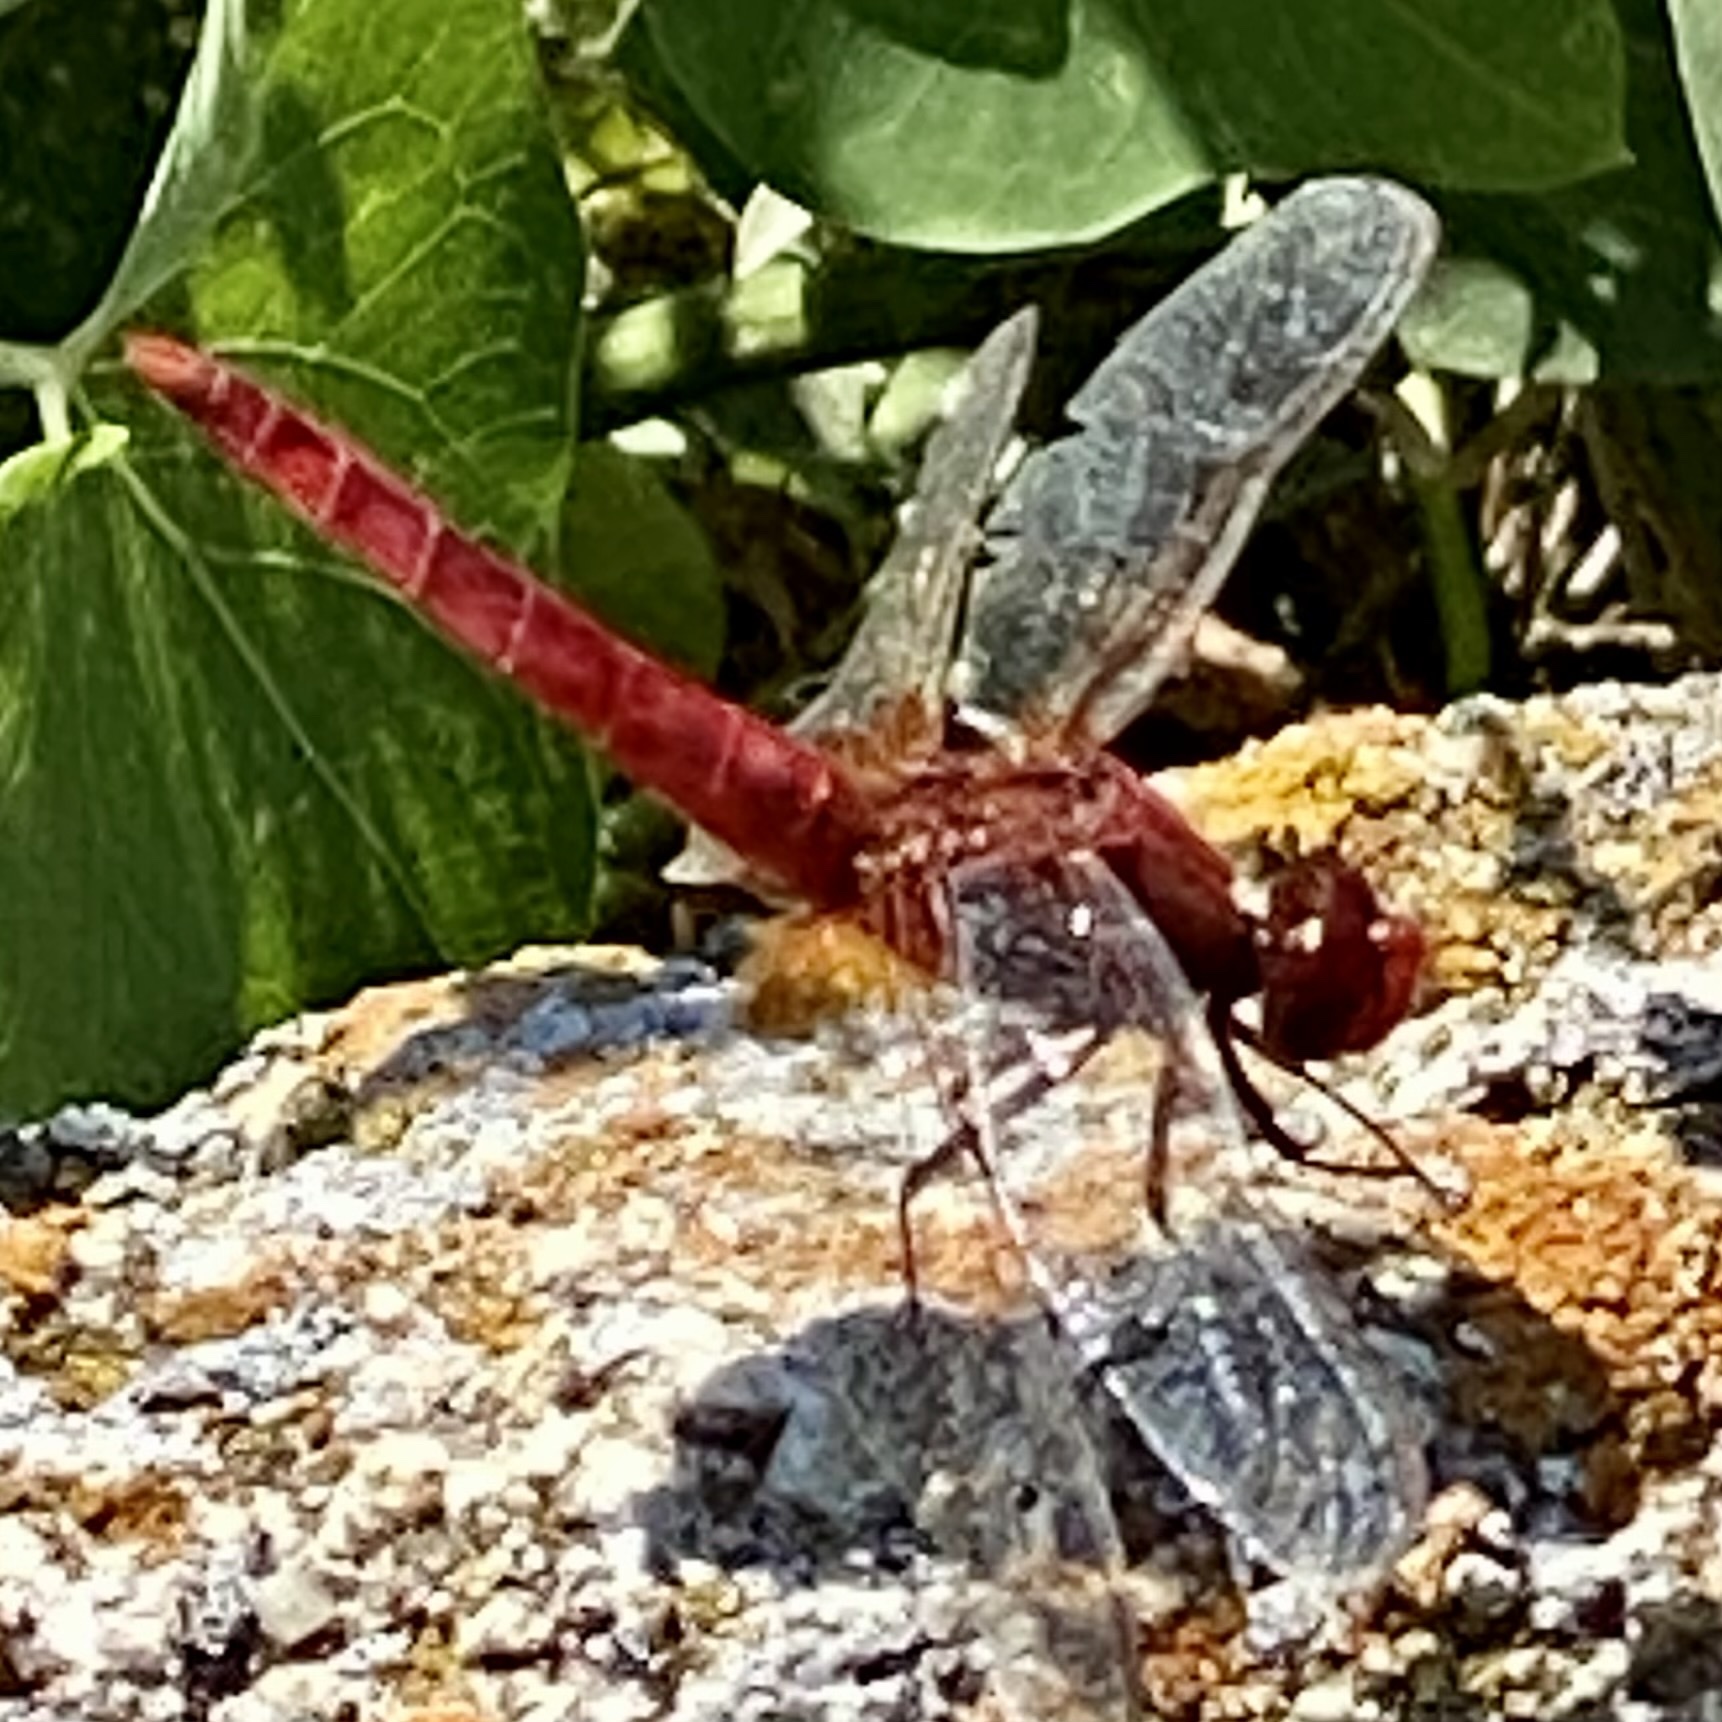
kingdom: Animalia
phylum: Arthropoda
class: Insecta
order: Odonata
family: Libellulidae
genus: Crocothemis
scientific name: Crocothemis erythraea
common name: Scarlet dragonfly
